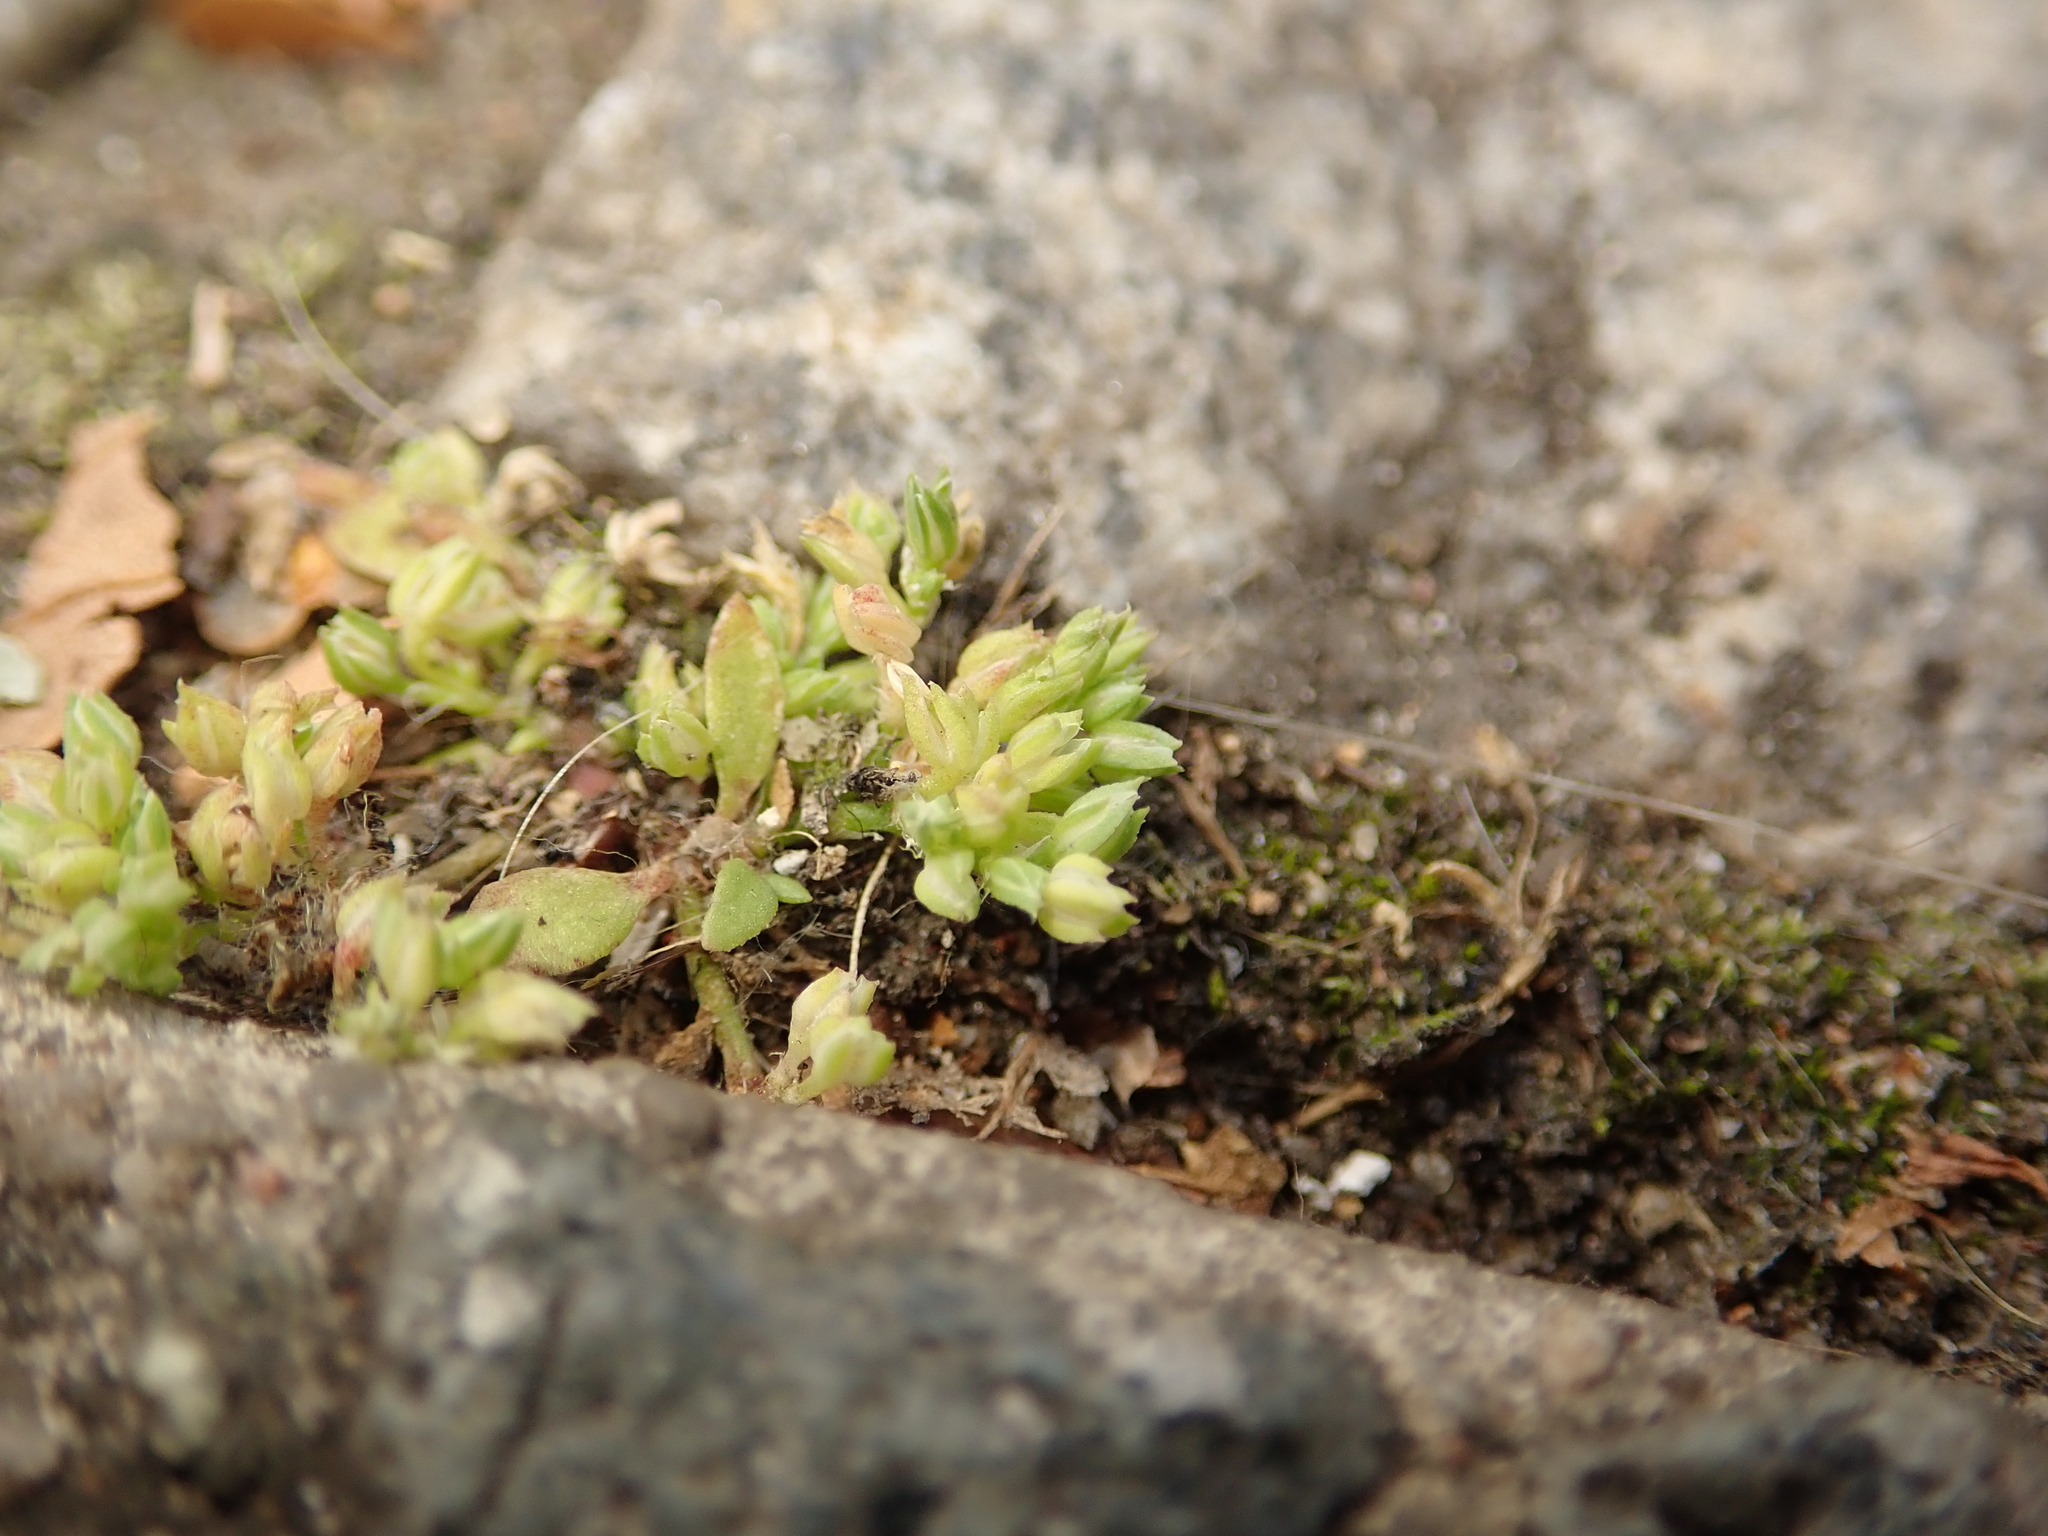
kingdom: Plantae
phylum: Tracheophyta
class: Magnoliopsida
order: Caryophyllales
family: Caryophyllaceae
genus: Polycarpon
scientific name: Polycarpon tetraphyllum
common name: Four-leaved all-seed
